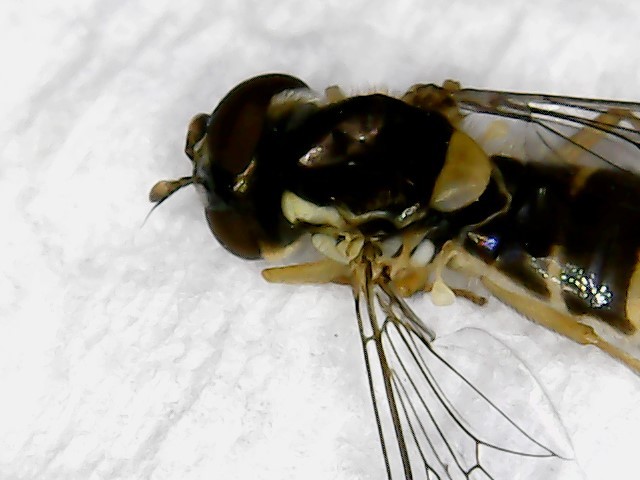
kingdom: Animalia
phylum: Arthropoda
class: Insecta
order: Diptera
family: Syrphidae
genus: Sphaerophoria
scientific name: Sphaerophoria
